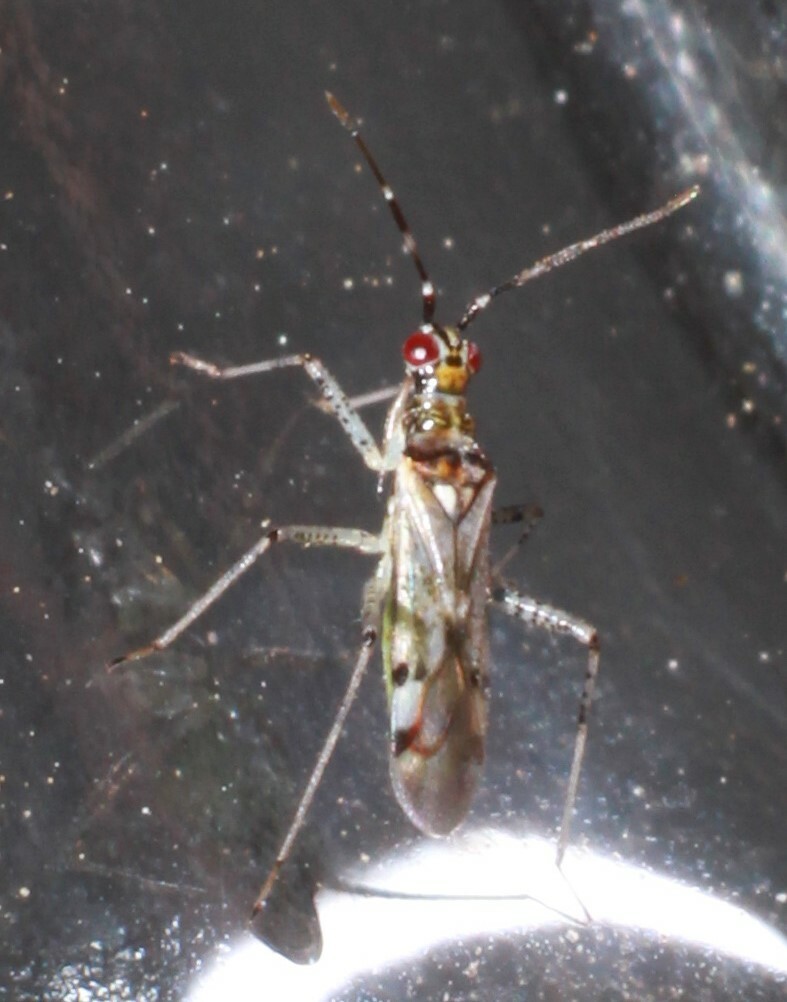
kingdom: Animalia
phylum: Arthropoda
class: Insecta
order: Hemiptera
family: Miridae
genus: Dicyphus
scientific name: Dicyphus escalerae
